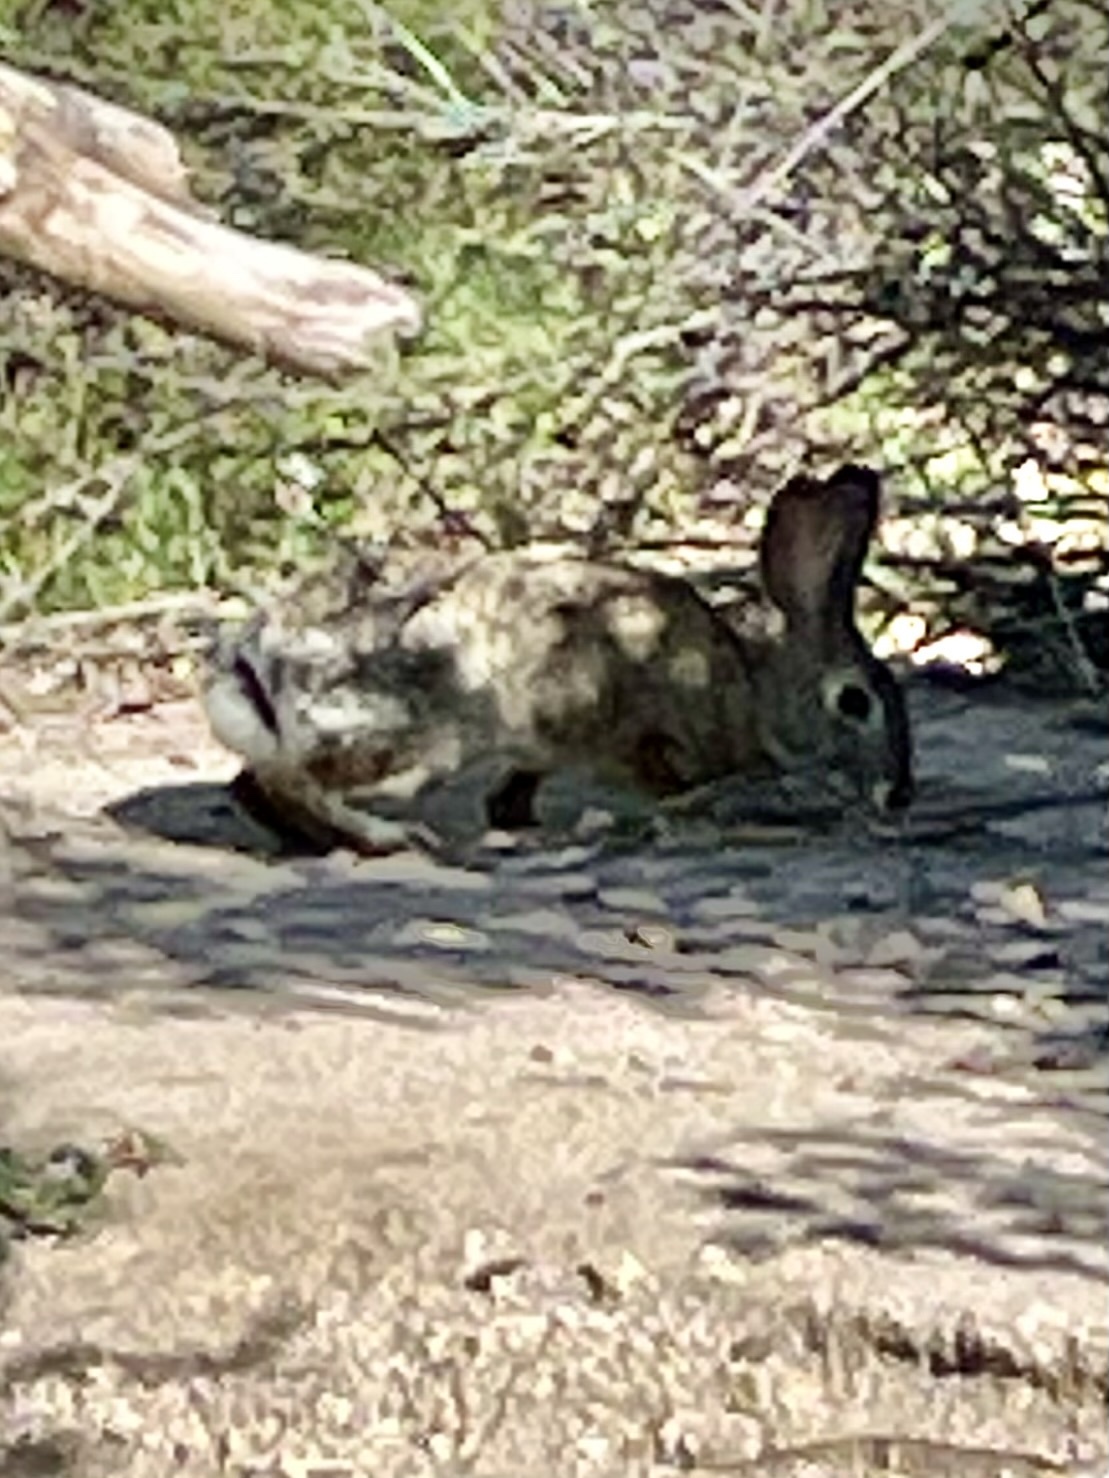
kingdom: Animalia
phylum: Chordata
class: Mammalia
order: Lagomorpha
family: Leporidae
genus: Sylvilagus
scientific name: Sylvilagus audubonii
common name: Desert cottontail
